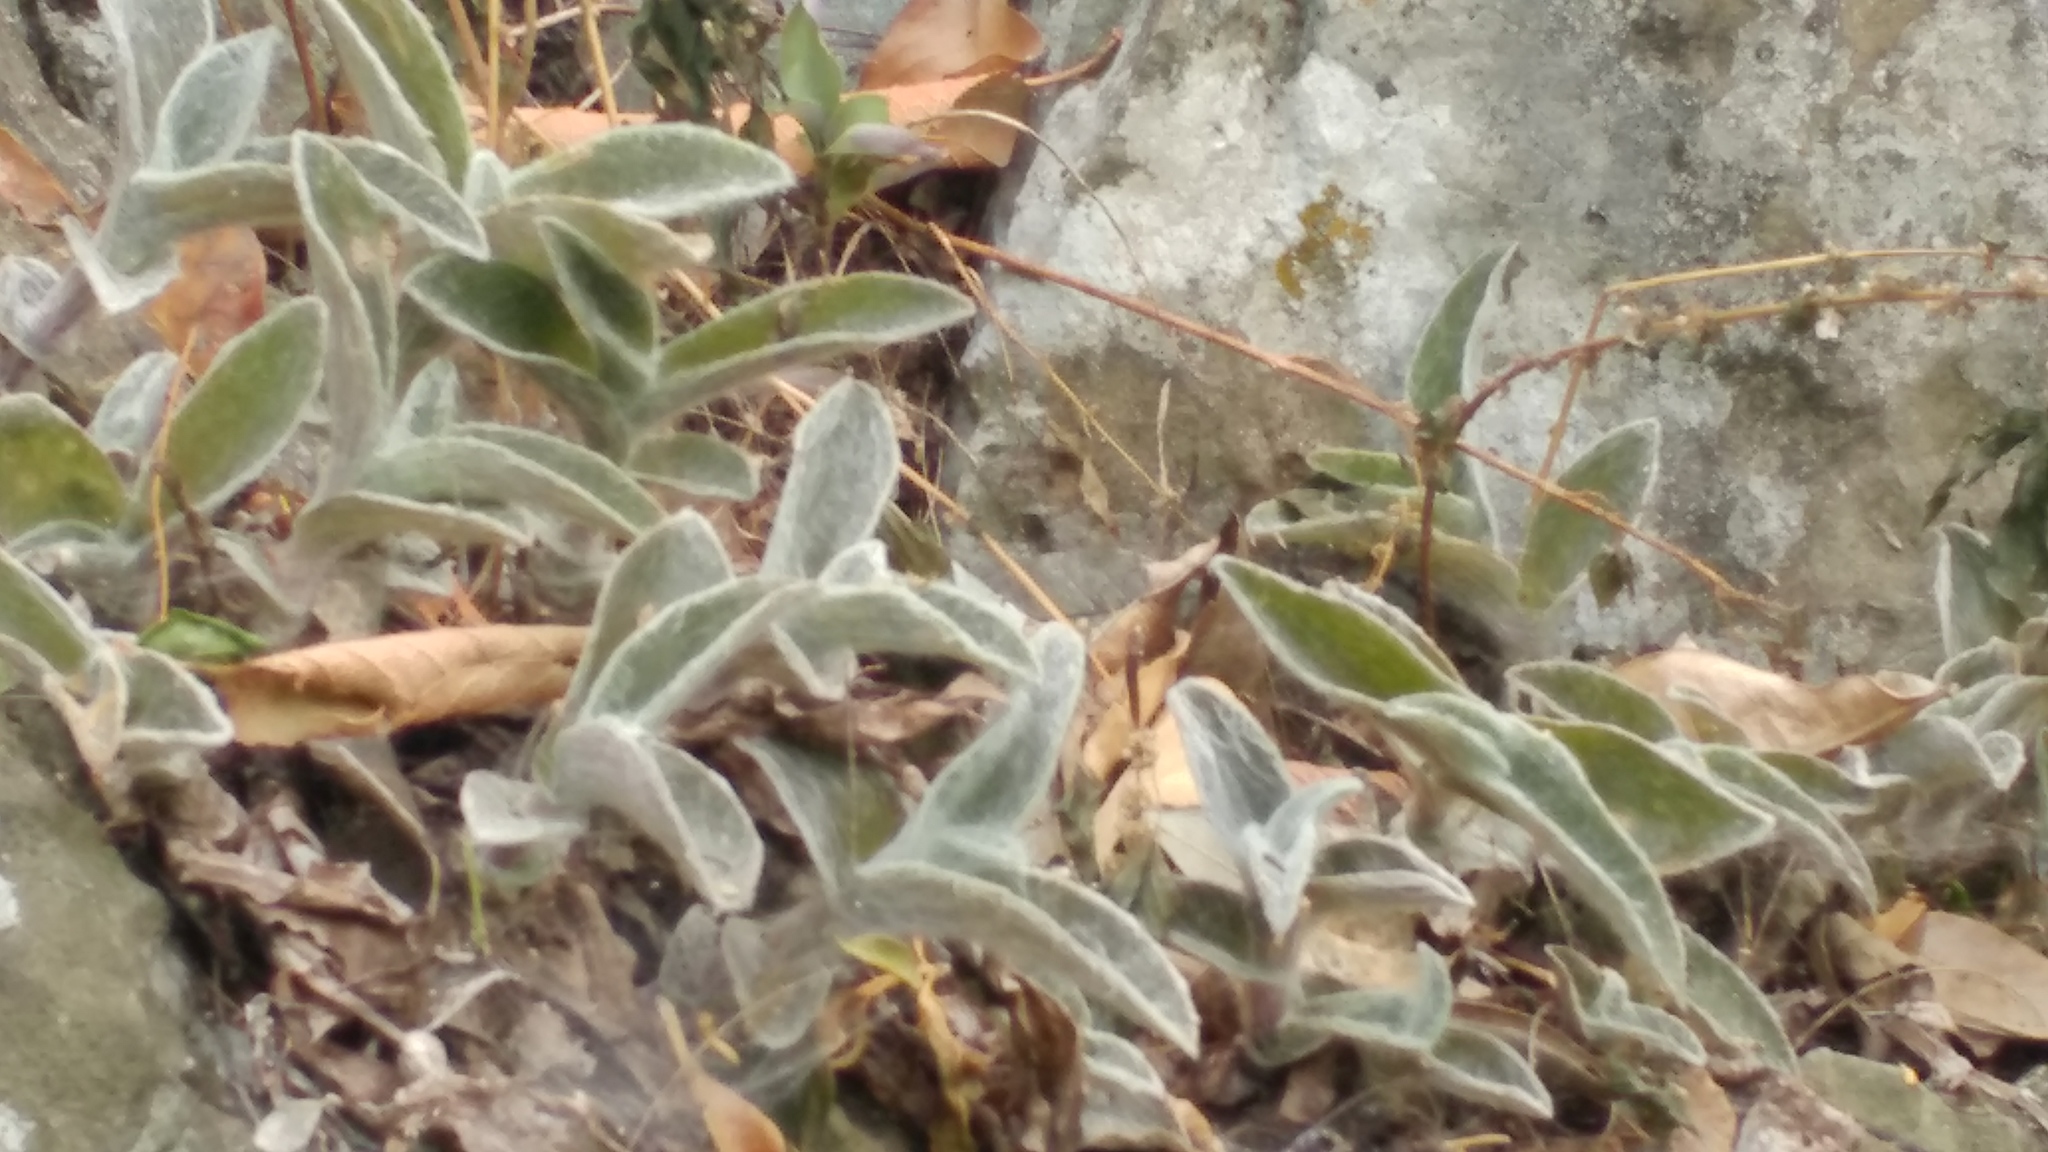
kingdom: Plantae
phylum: Tracheophyta
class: Liliopsida
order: Commelinales
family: Commelinaceae
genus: Tradescantia
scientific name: Tradescantia sillamontana
